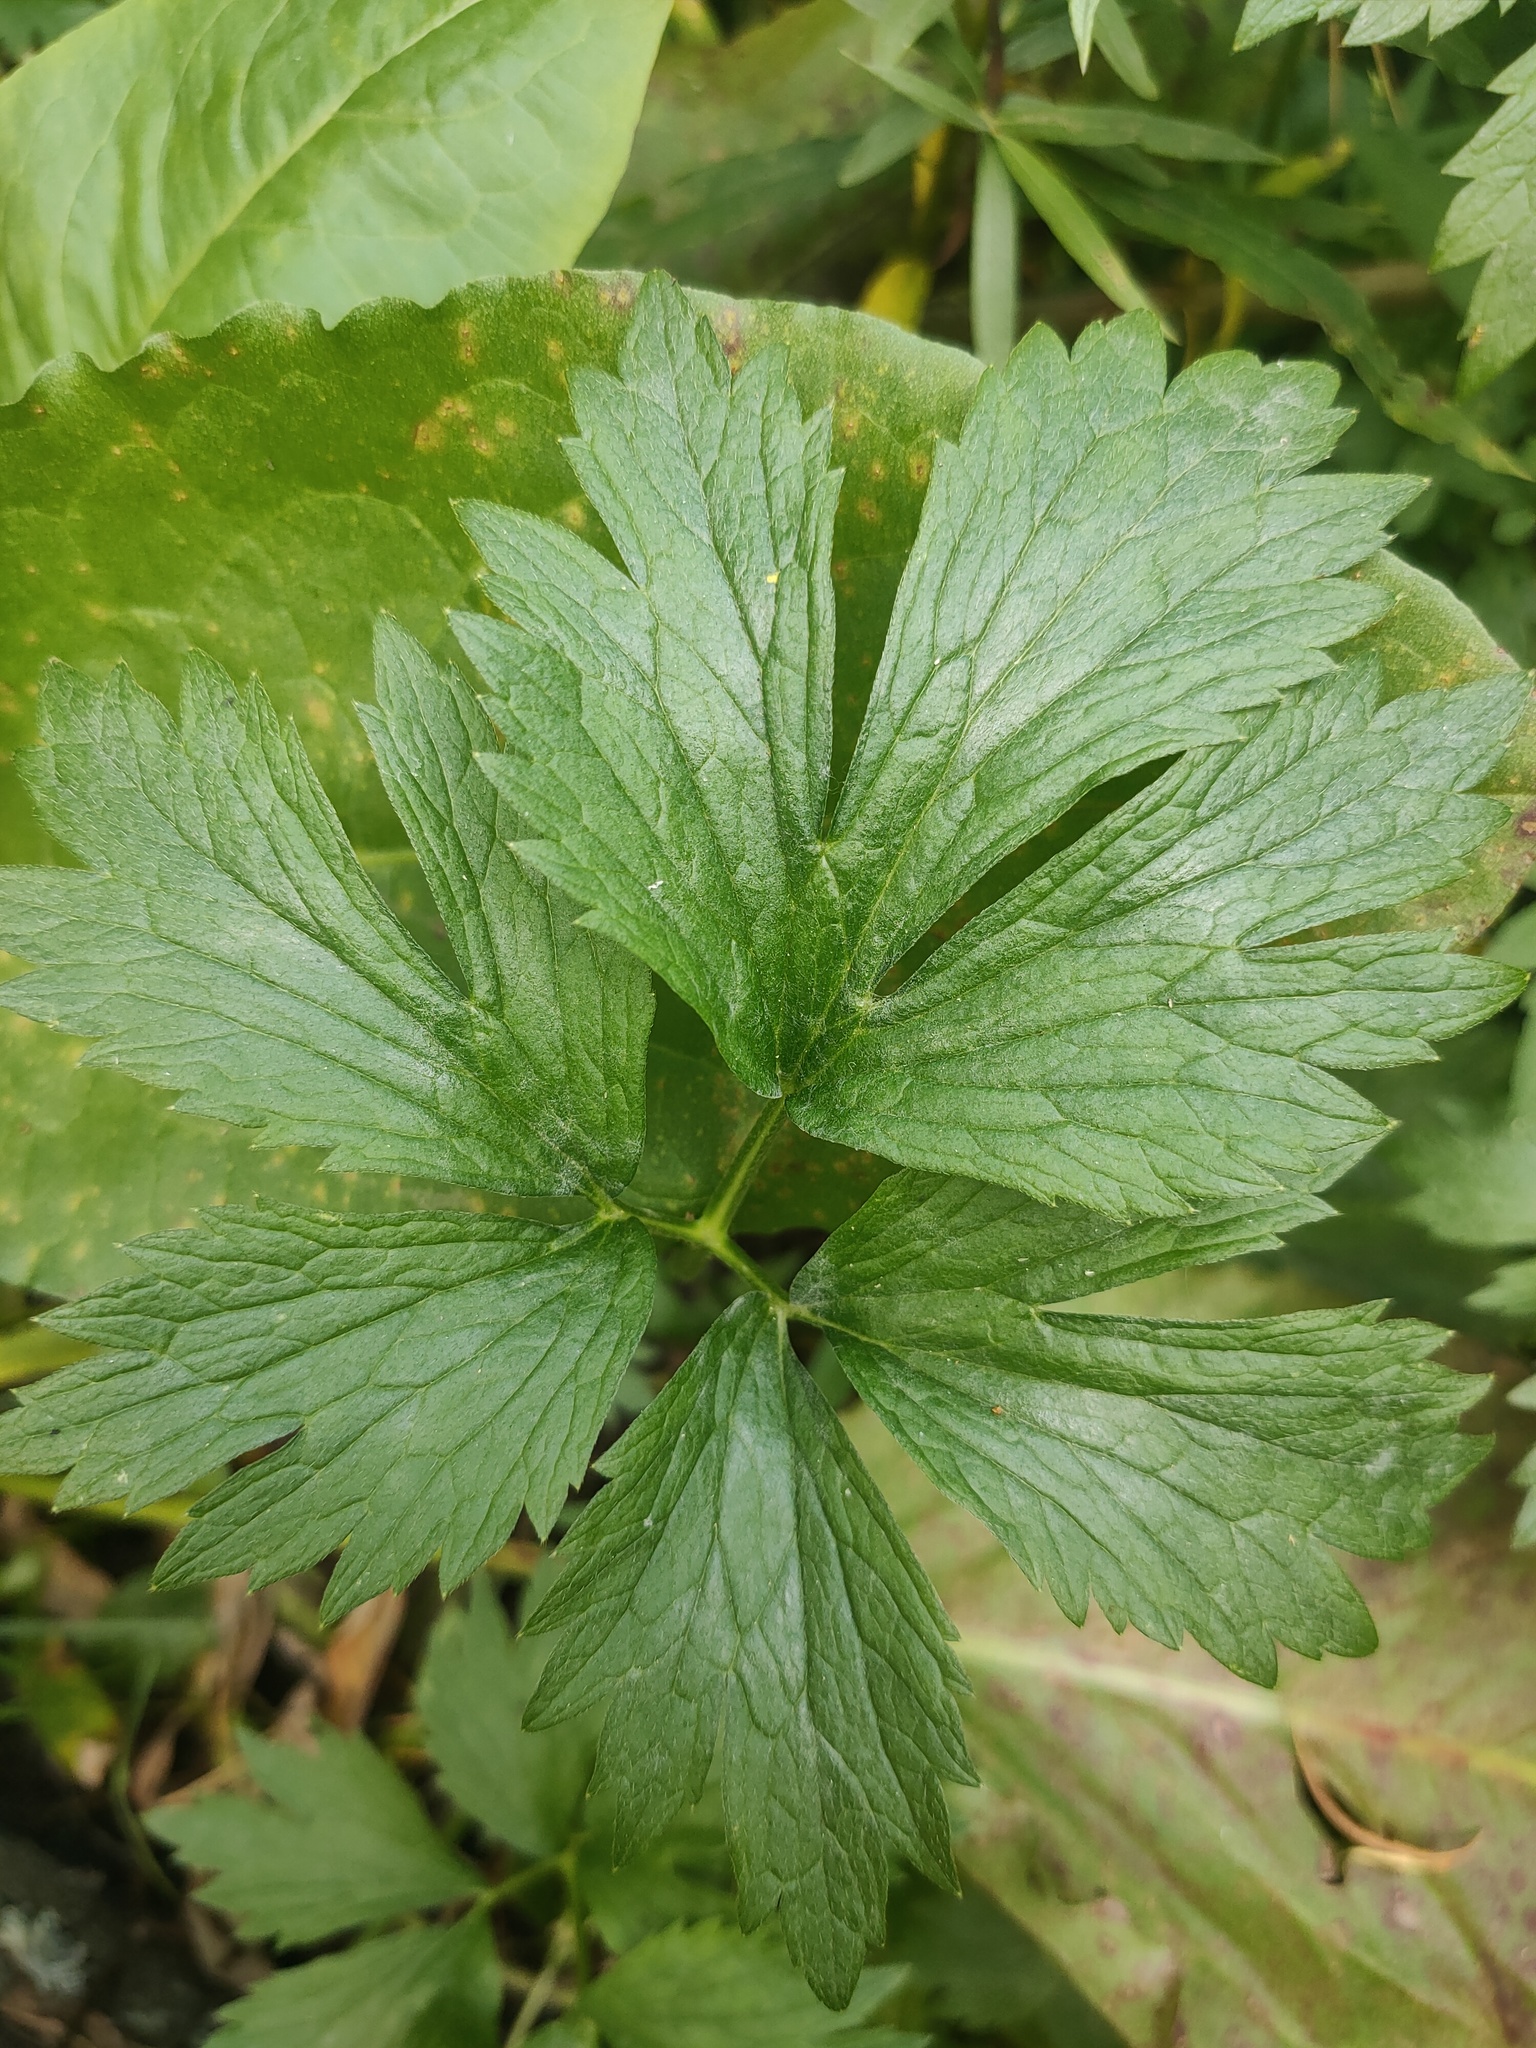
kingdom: Plantae
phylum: Tracheophyta
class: Magnoliopsida
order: Ranunculales
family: Ranunculaceae
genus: Ranunculus
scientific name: Ranunculus repens
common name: Creeping buttercup
